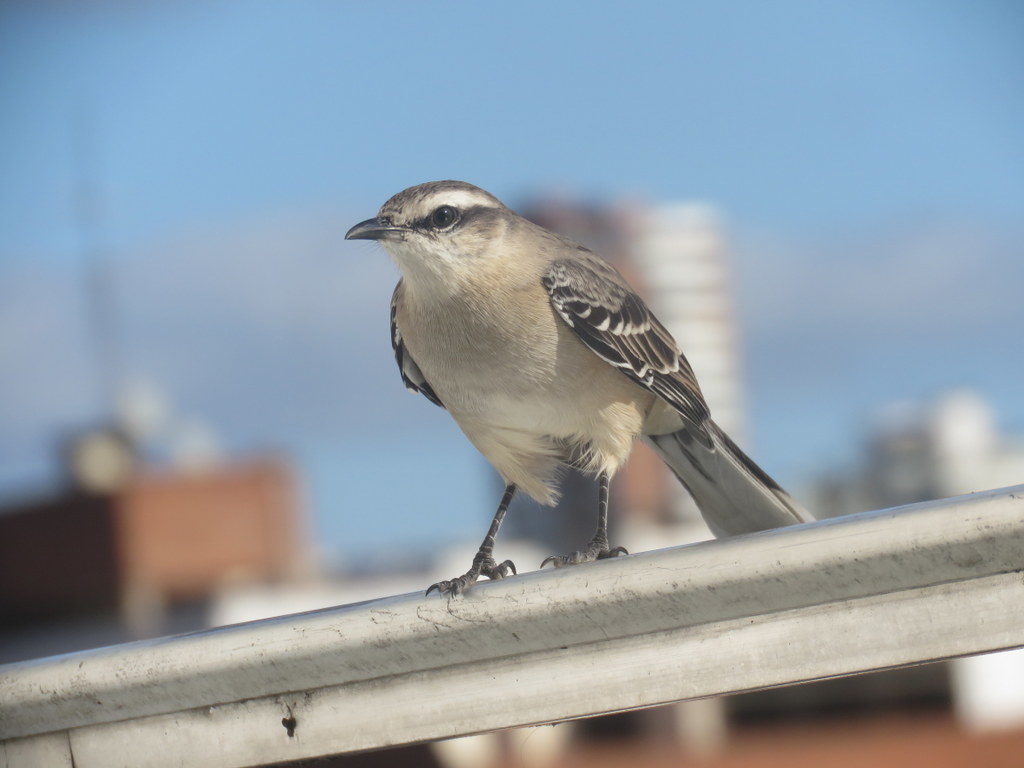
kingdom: Animalia
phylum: Chordata
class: Aves
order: Passeriformes
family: Mimidae
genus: Mimus
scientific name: Mimus saturninus
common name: Chalk-browed mockingbird
